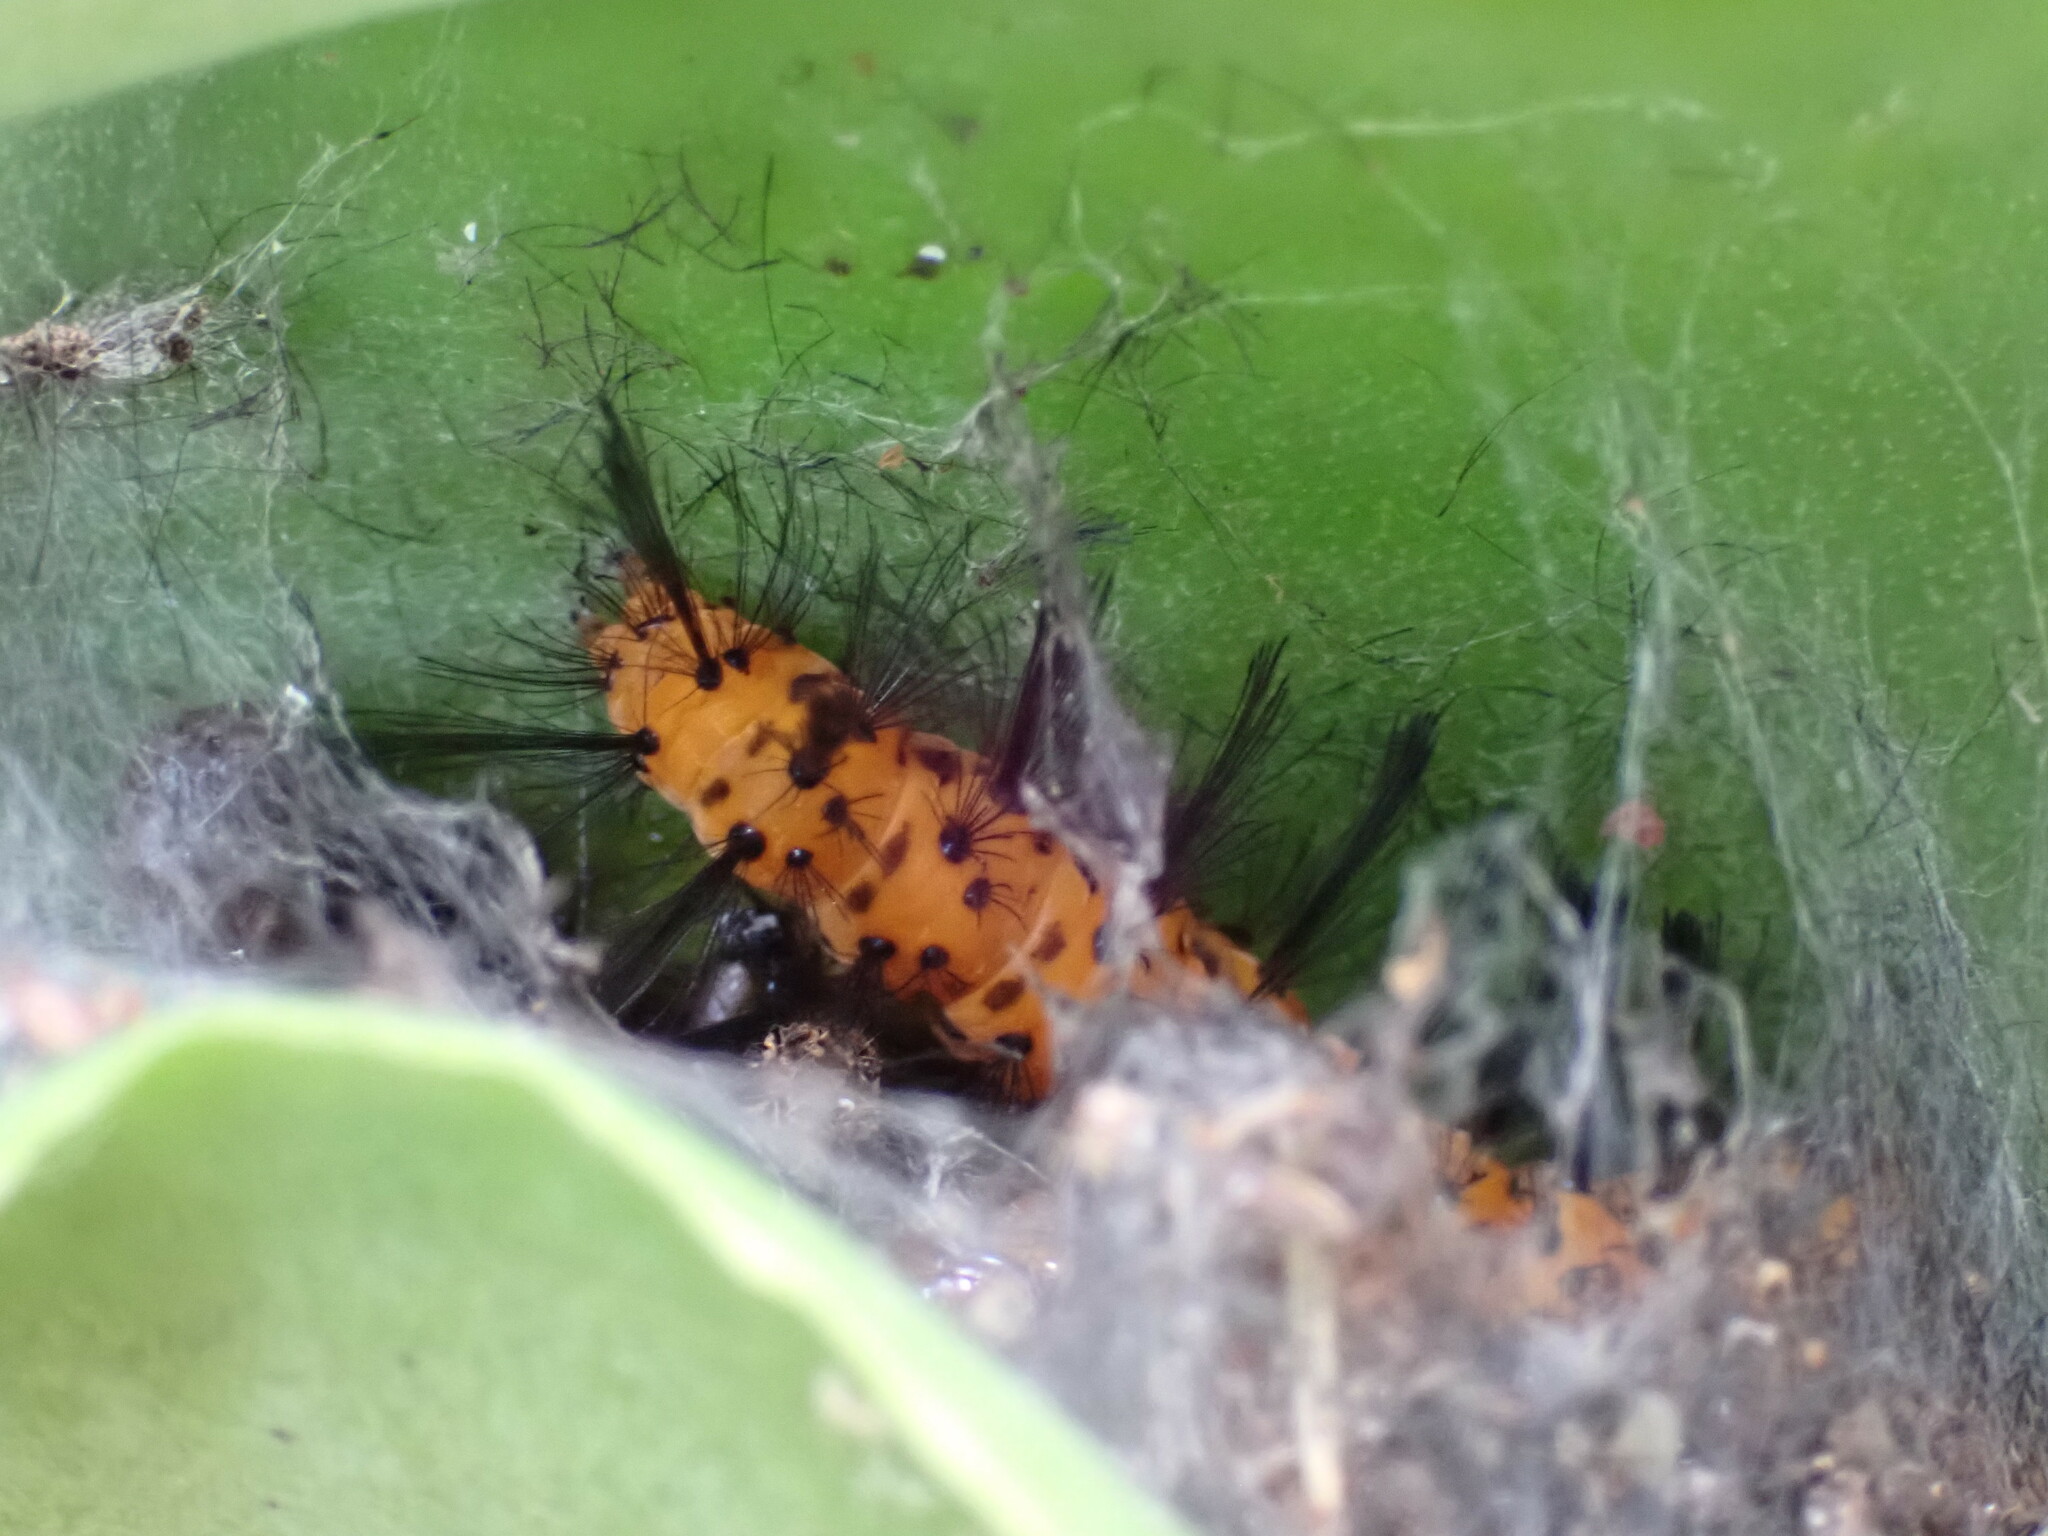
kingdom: Animalia
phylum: Arthropoda
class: Insecta
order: Lepidoptera
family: Erebidae
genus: Syntomeida
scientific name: Syntomeida epilais
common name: Polka-dot wasp moth
